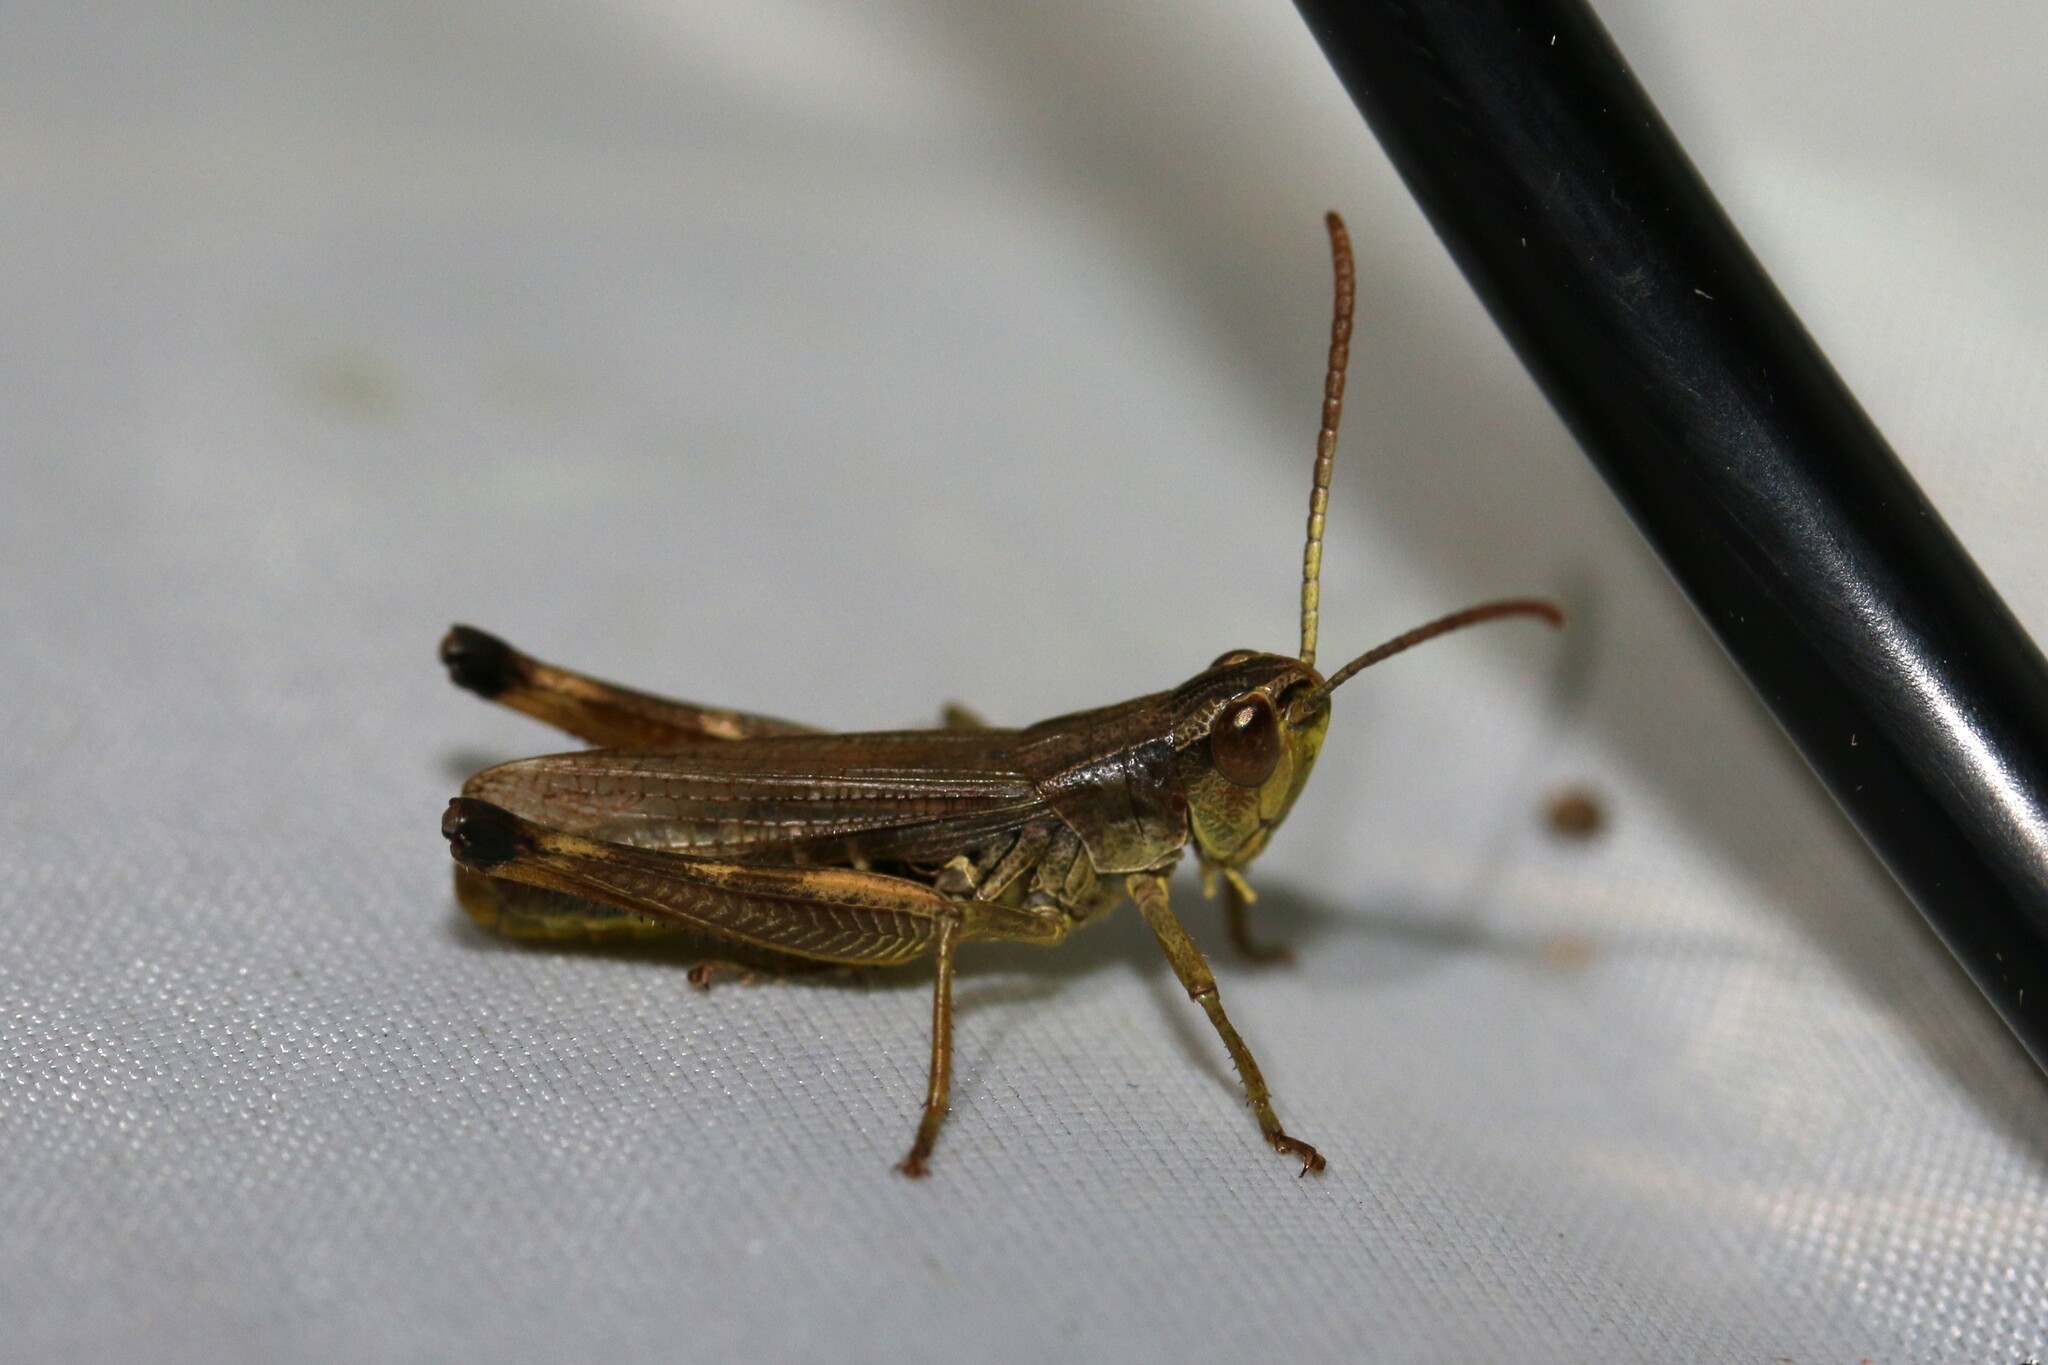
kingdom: Animalia
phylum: Arthropoda
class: Insecta
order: Orthoptera
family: Acrididae
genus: Pseudochorthippus
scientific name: Pseudochorthippus parallelus
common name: Meadow grasshopper
